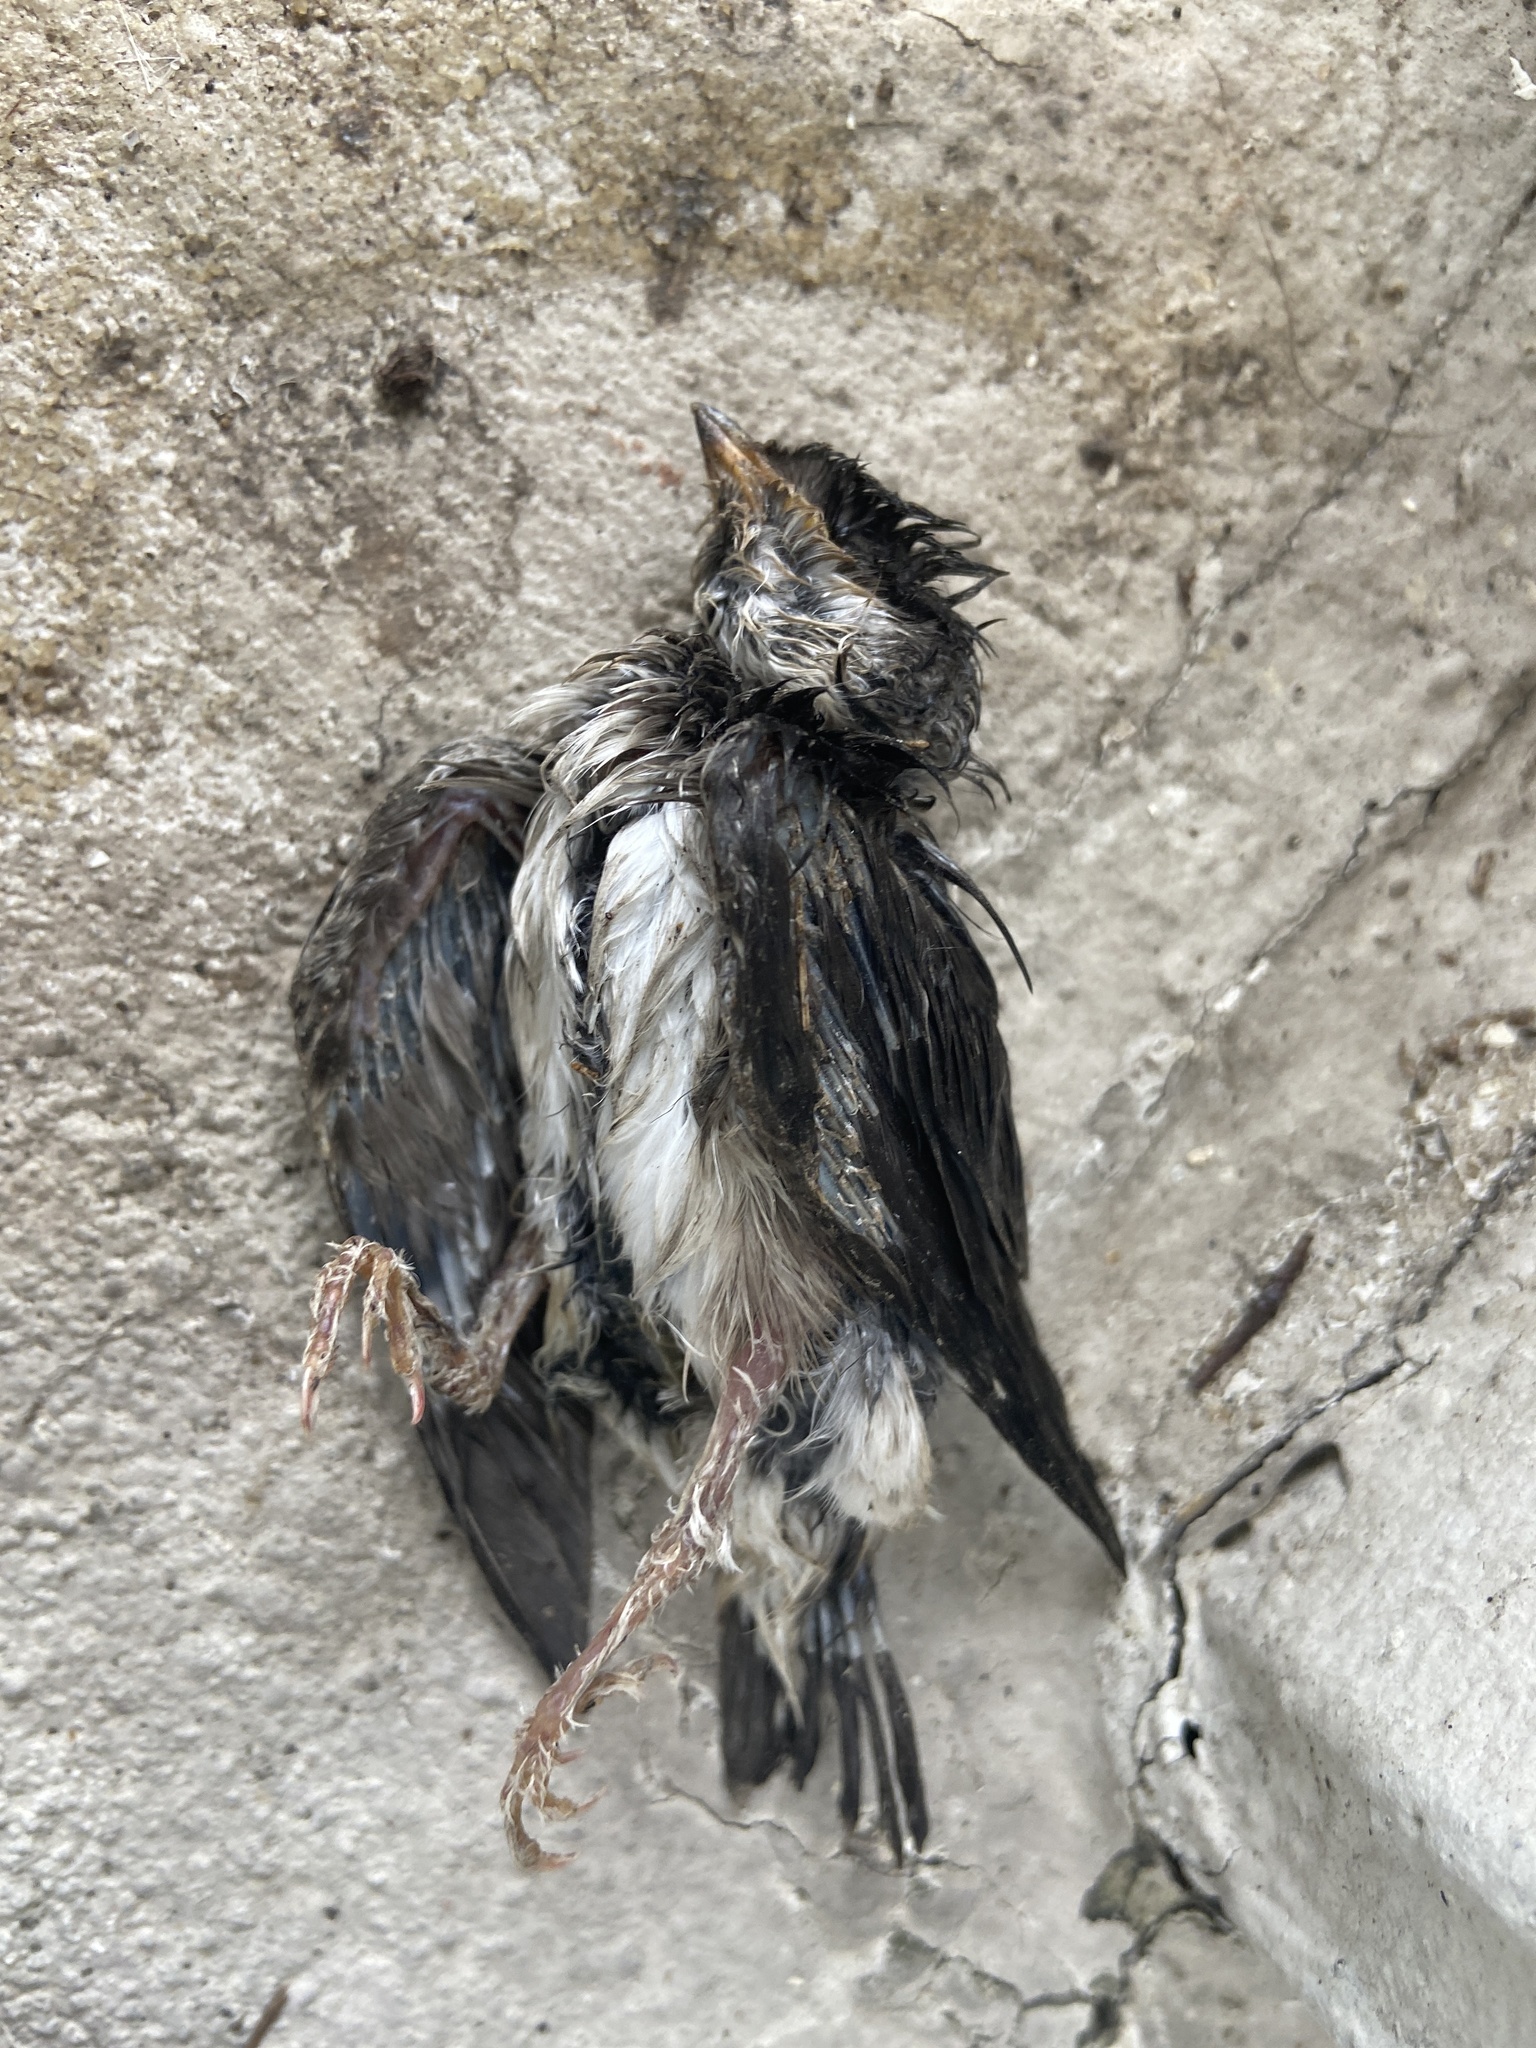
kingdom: Animalia
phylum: Chordata
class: Aves
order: Passeriformes
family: Hirundinidae
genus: Delichon
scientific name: Delichon urbicum
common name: Common house martin
